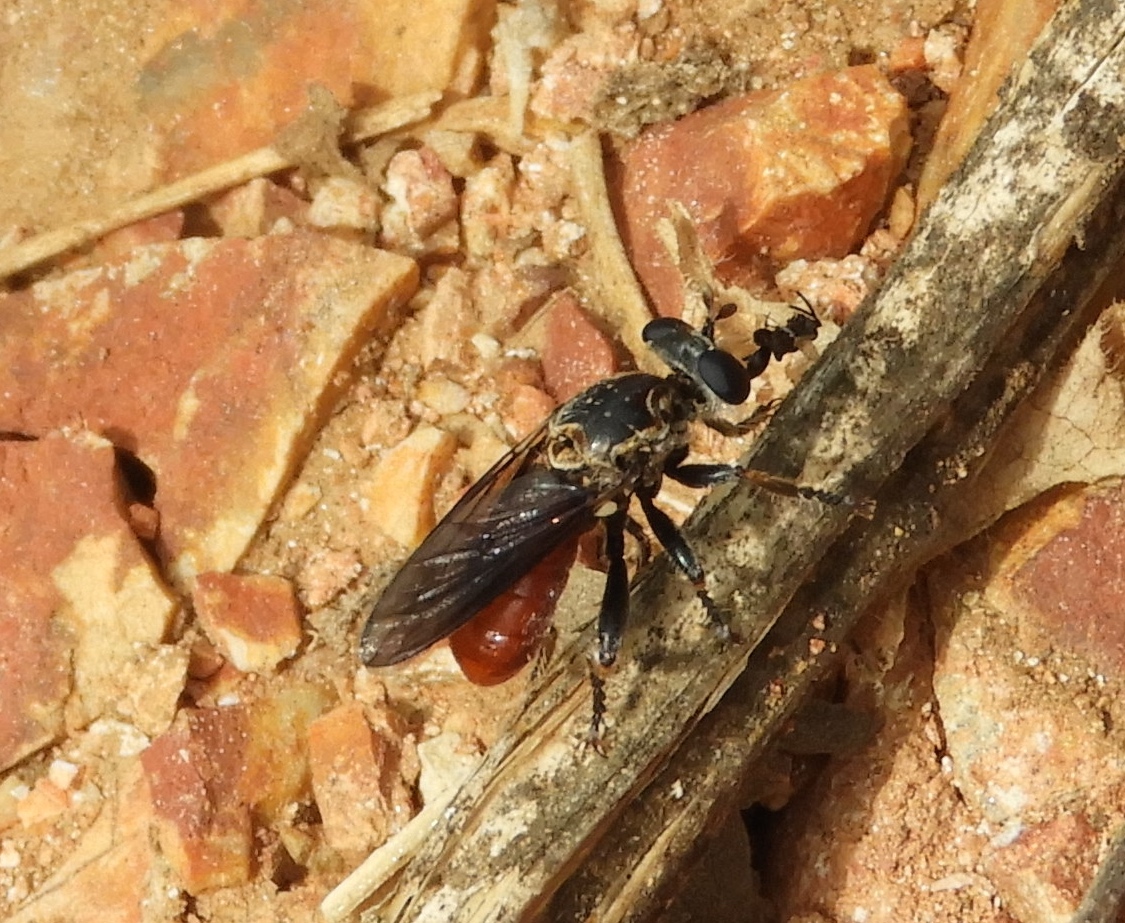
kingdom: Animalia
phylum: Arthropoda
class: Insecta
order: Diptera
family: Asilidae
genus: Cerotainiops
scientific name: Cerotainiops
